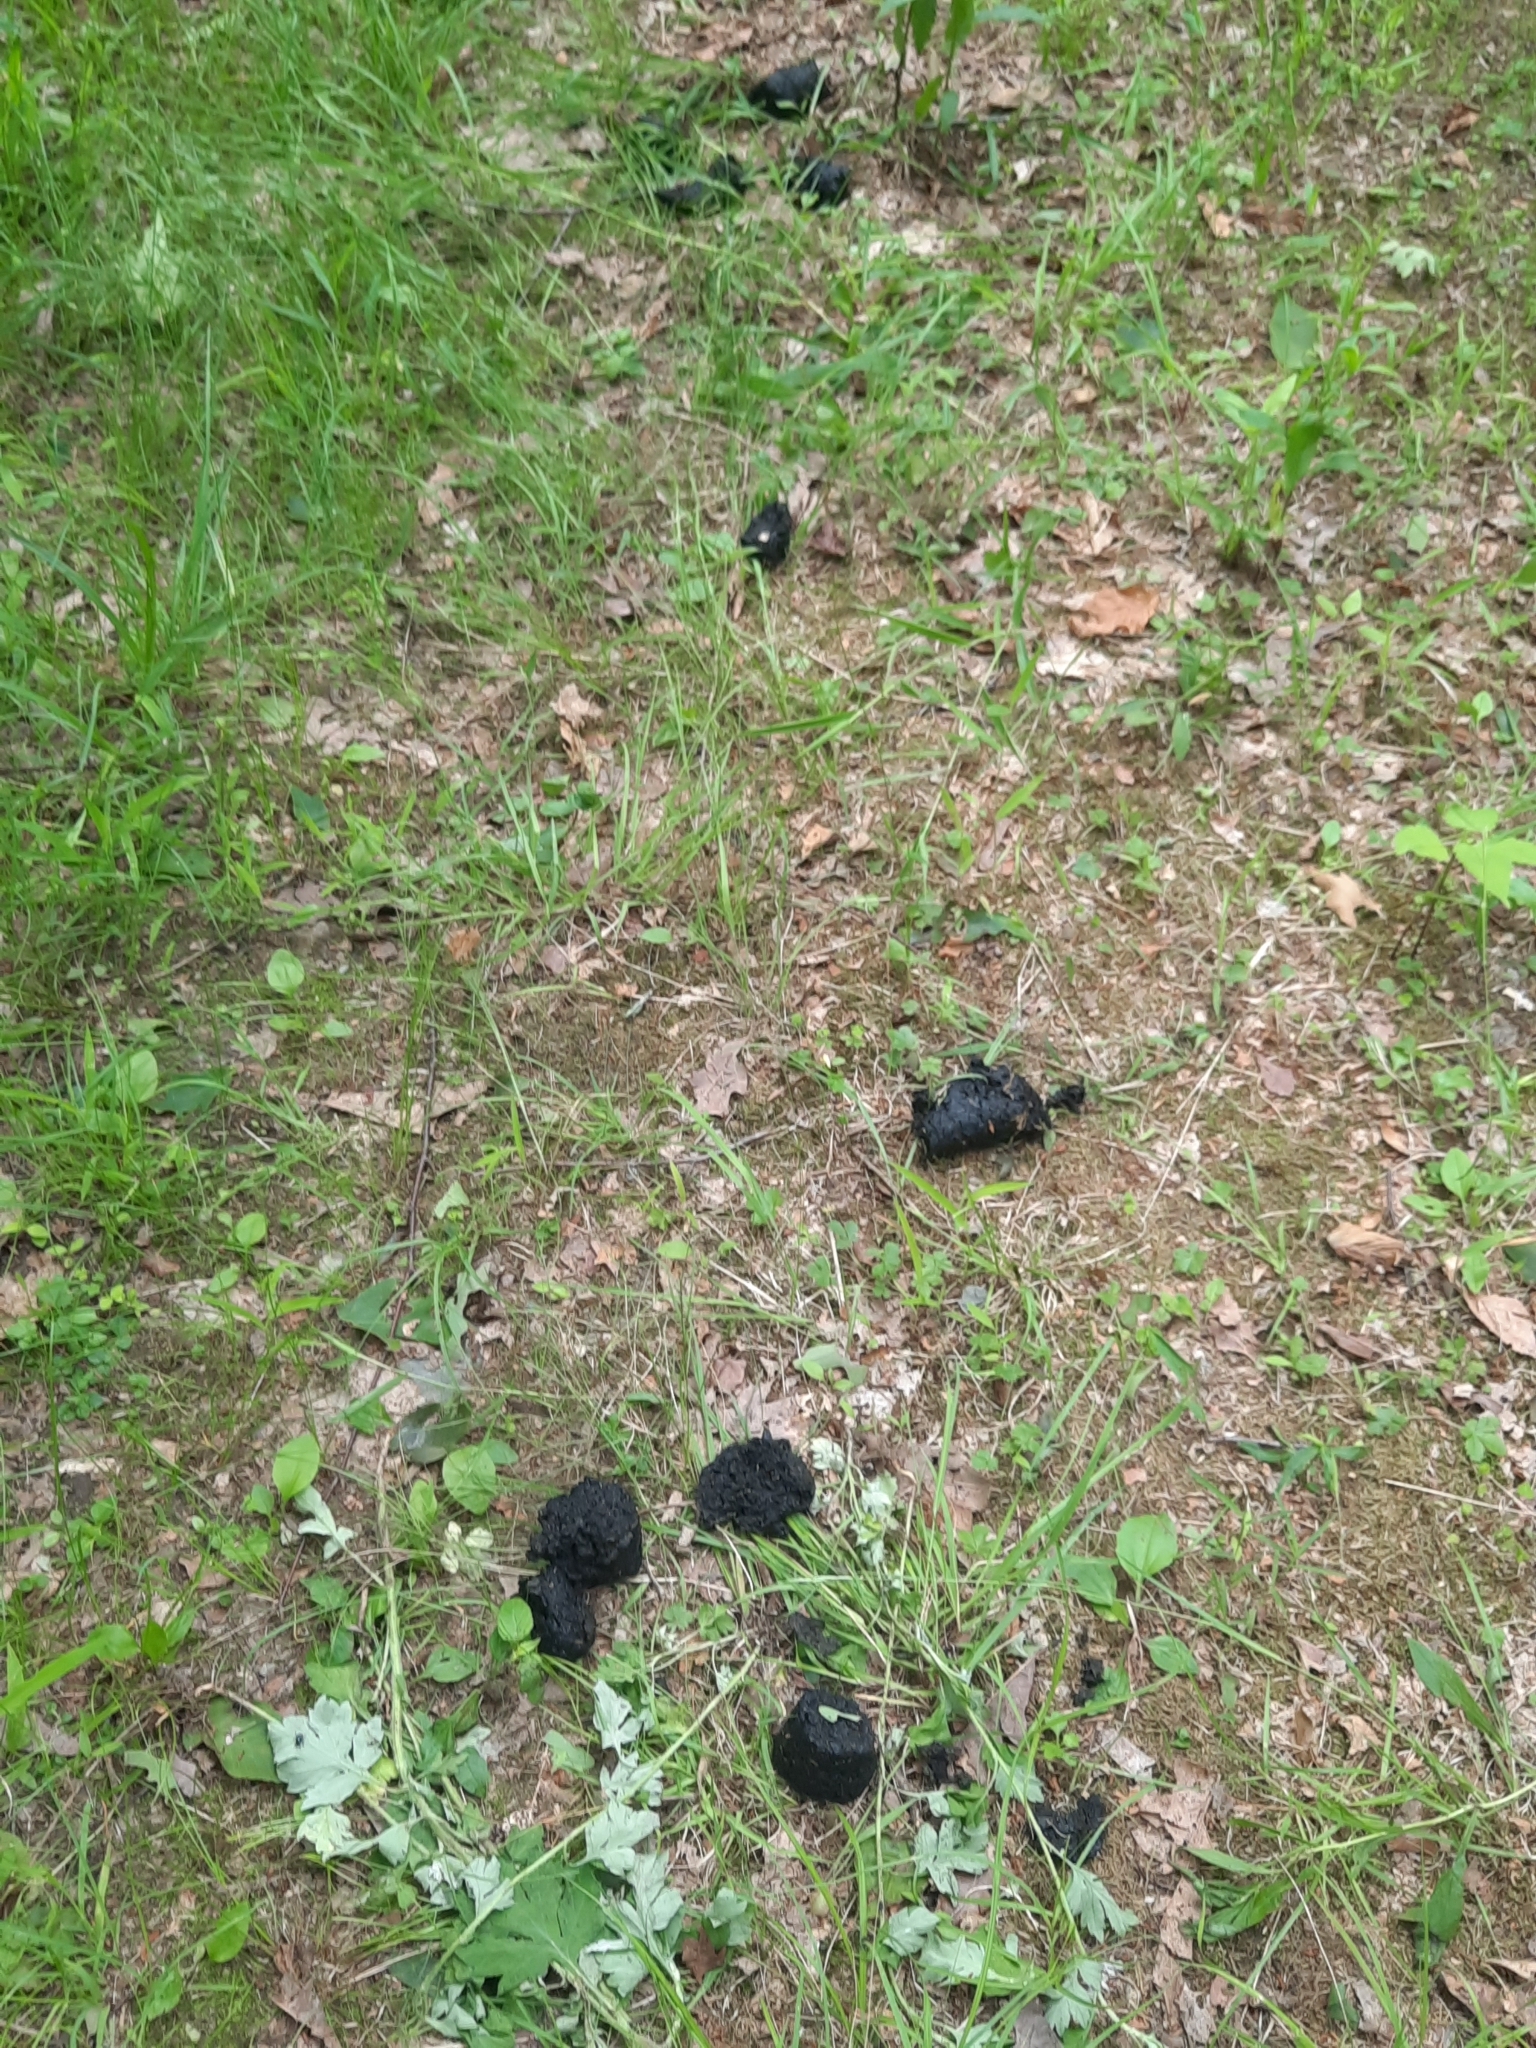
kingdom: Animalia
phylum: Chordata
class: Mammalia
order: Carnivora
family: Ursidae
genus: Ursus
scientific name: Ursus americanus
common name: American black bear
